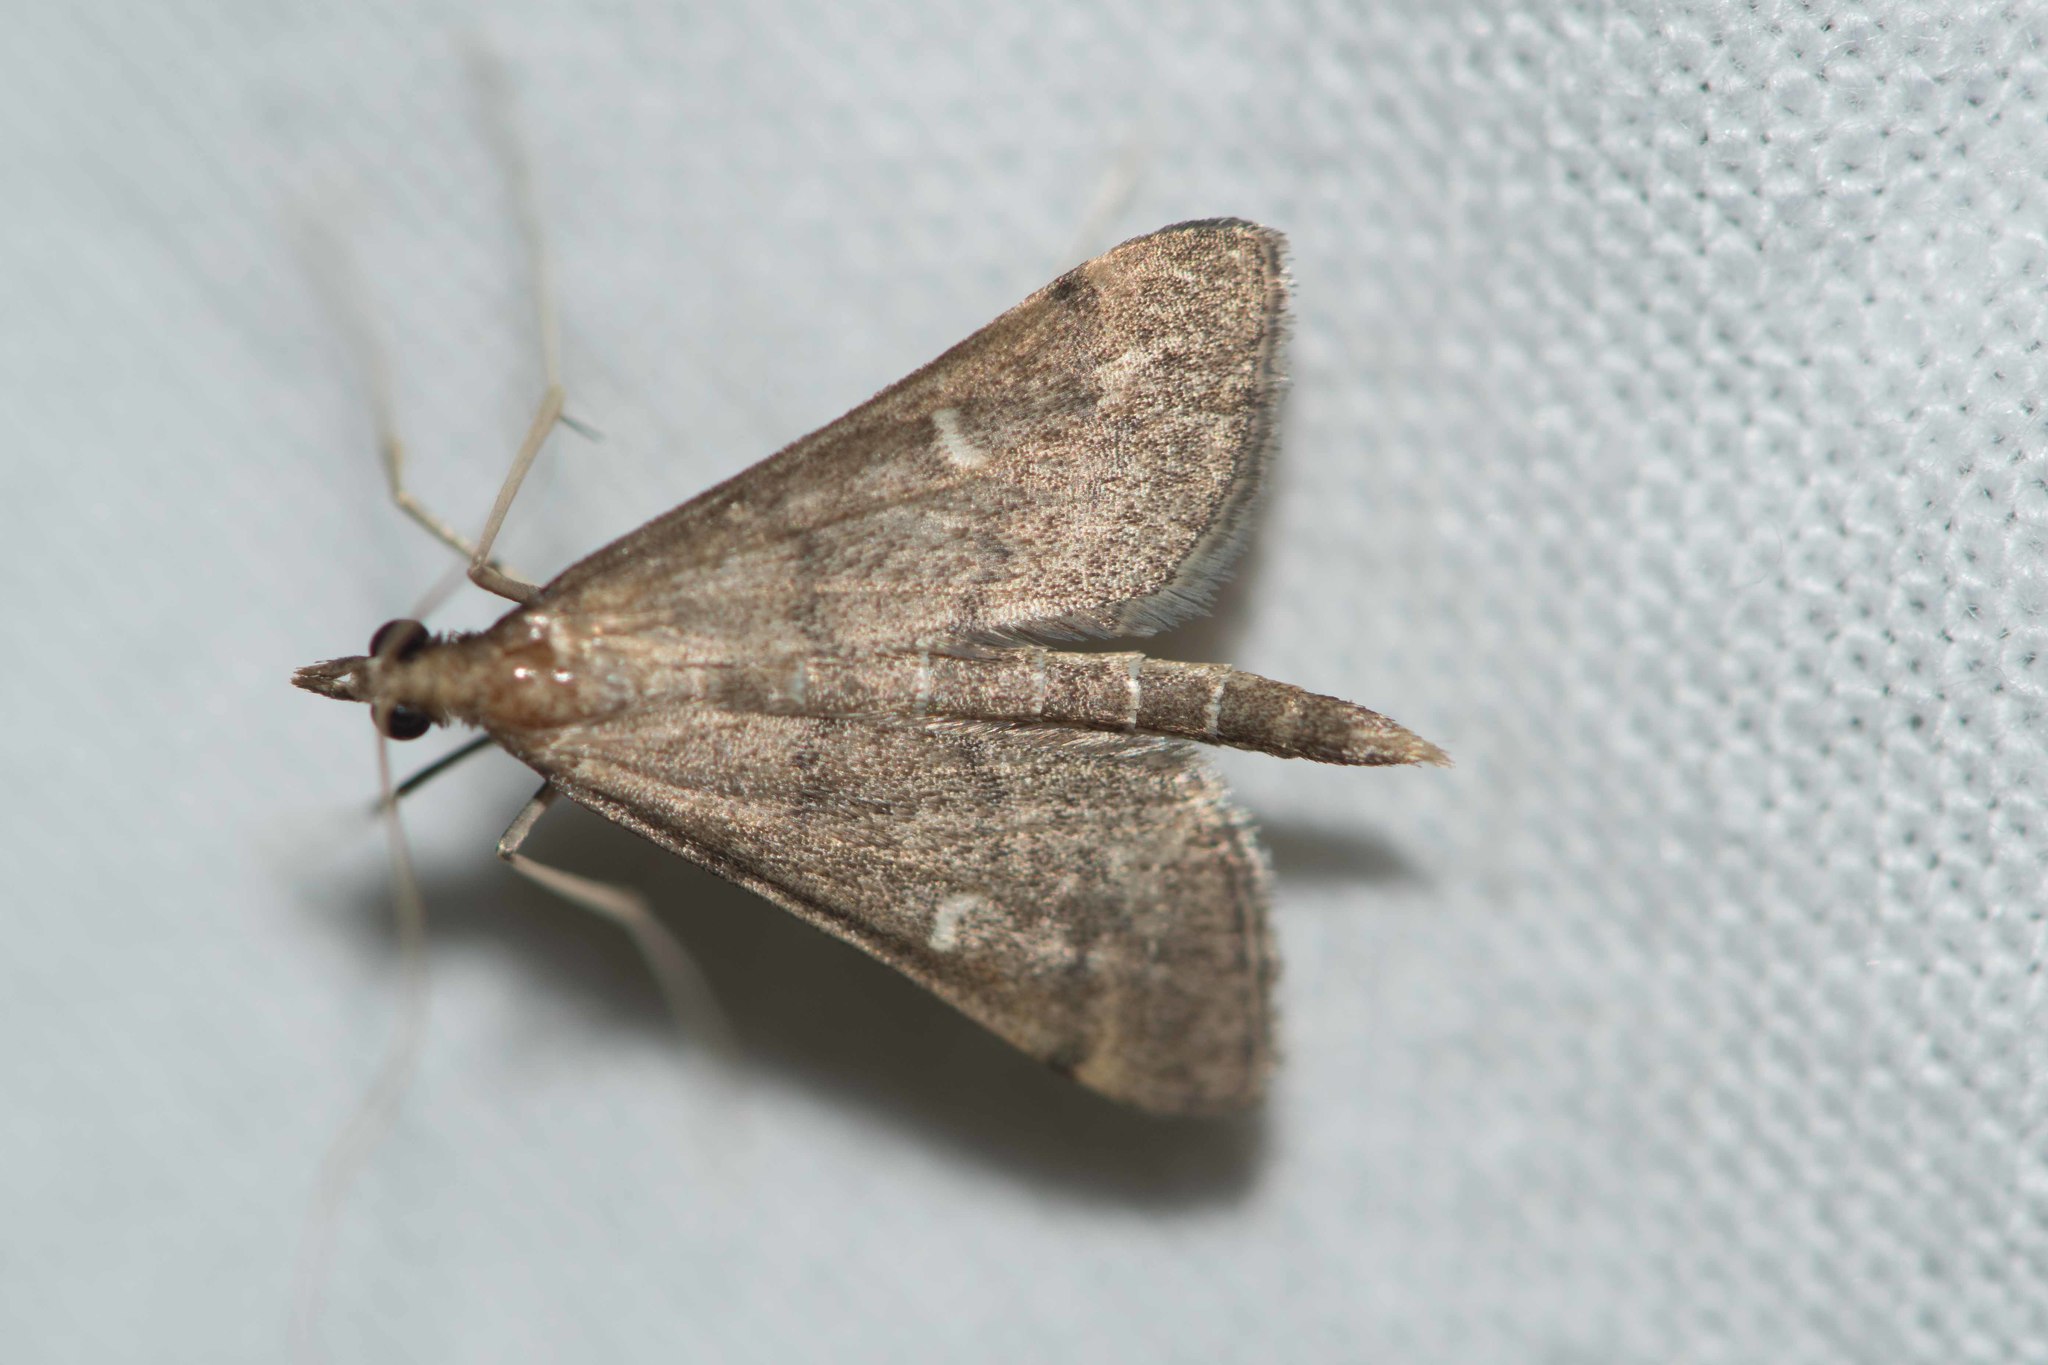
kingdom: Animalia
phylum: Arthropoda
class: Insecta
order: Lepidoptera
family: Crambidae
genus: Stenia
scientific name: Stenia Dolicharthria punctalis
